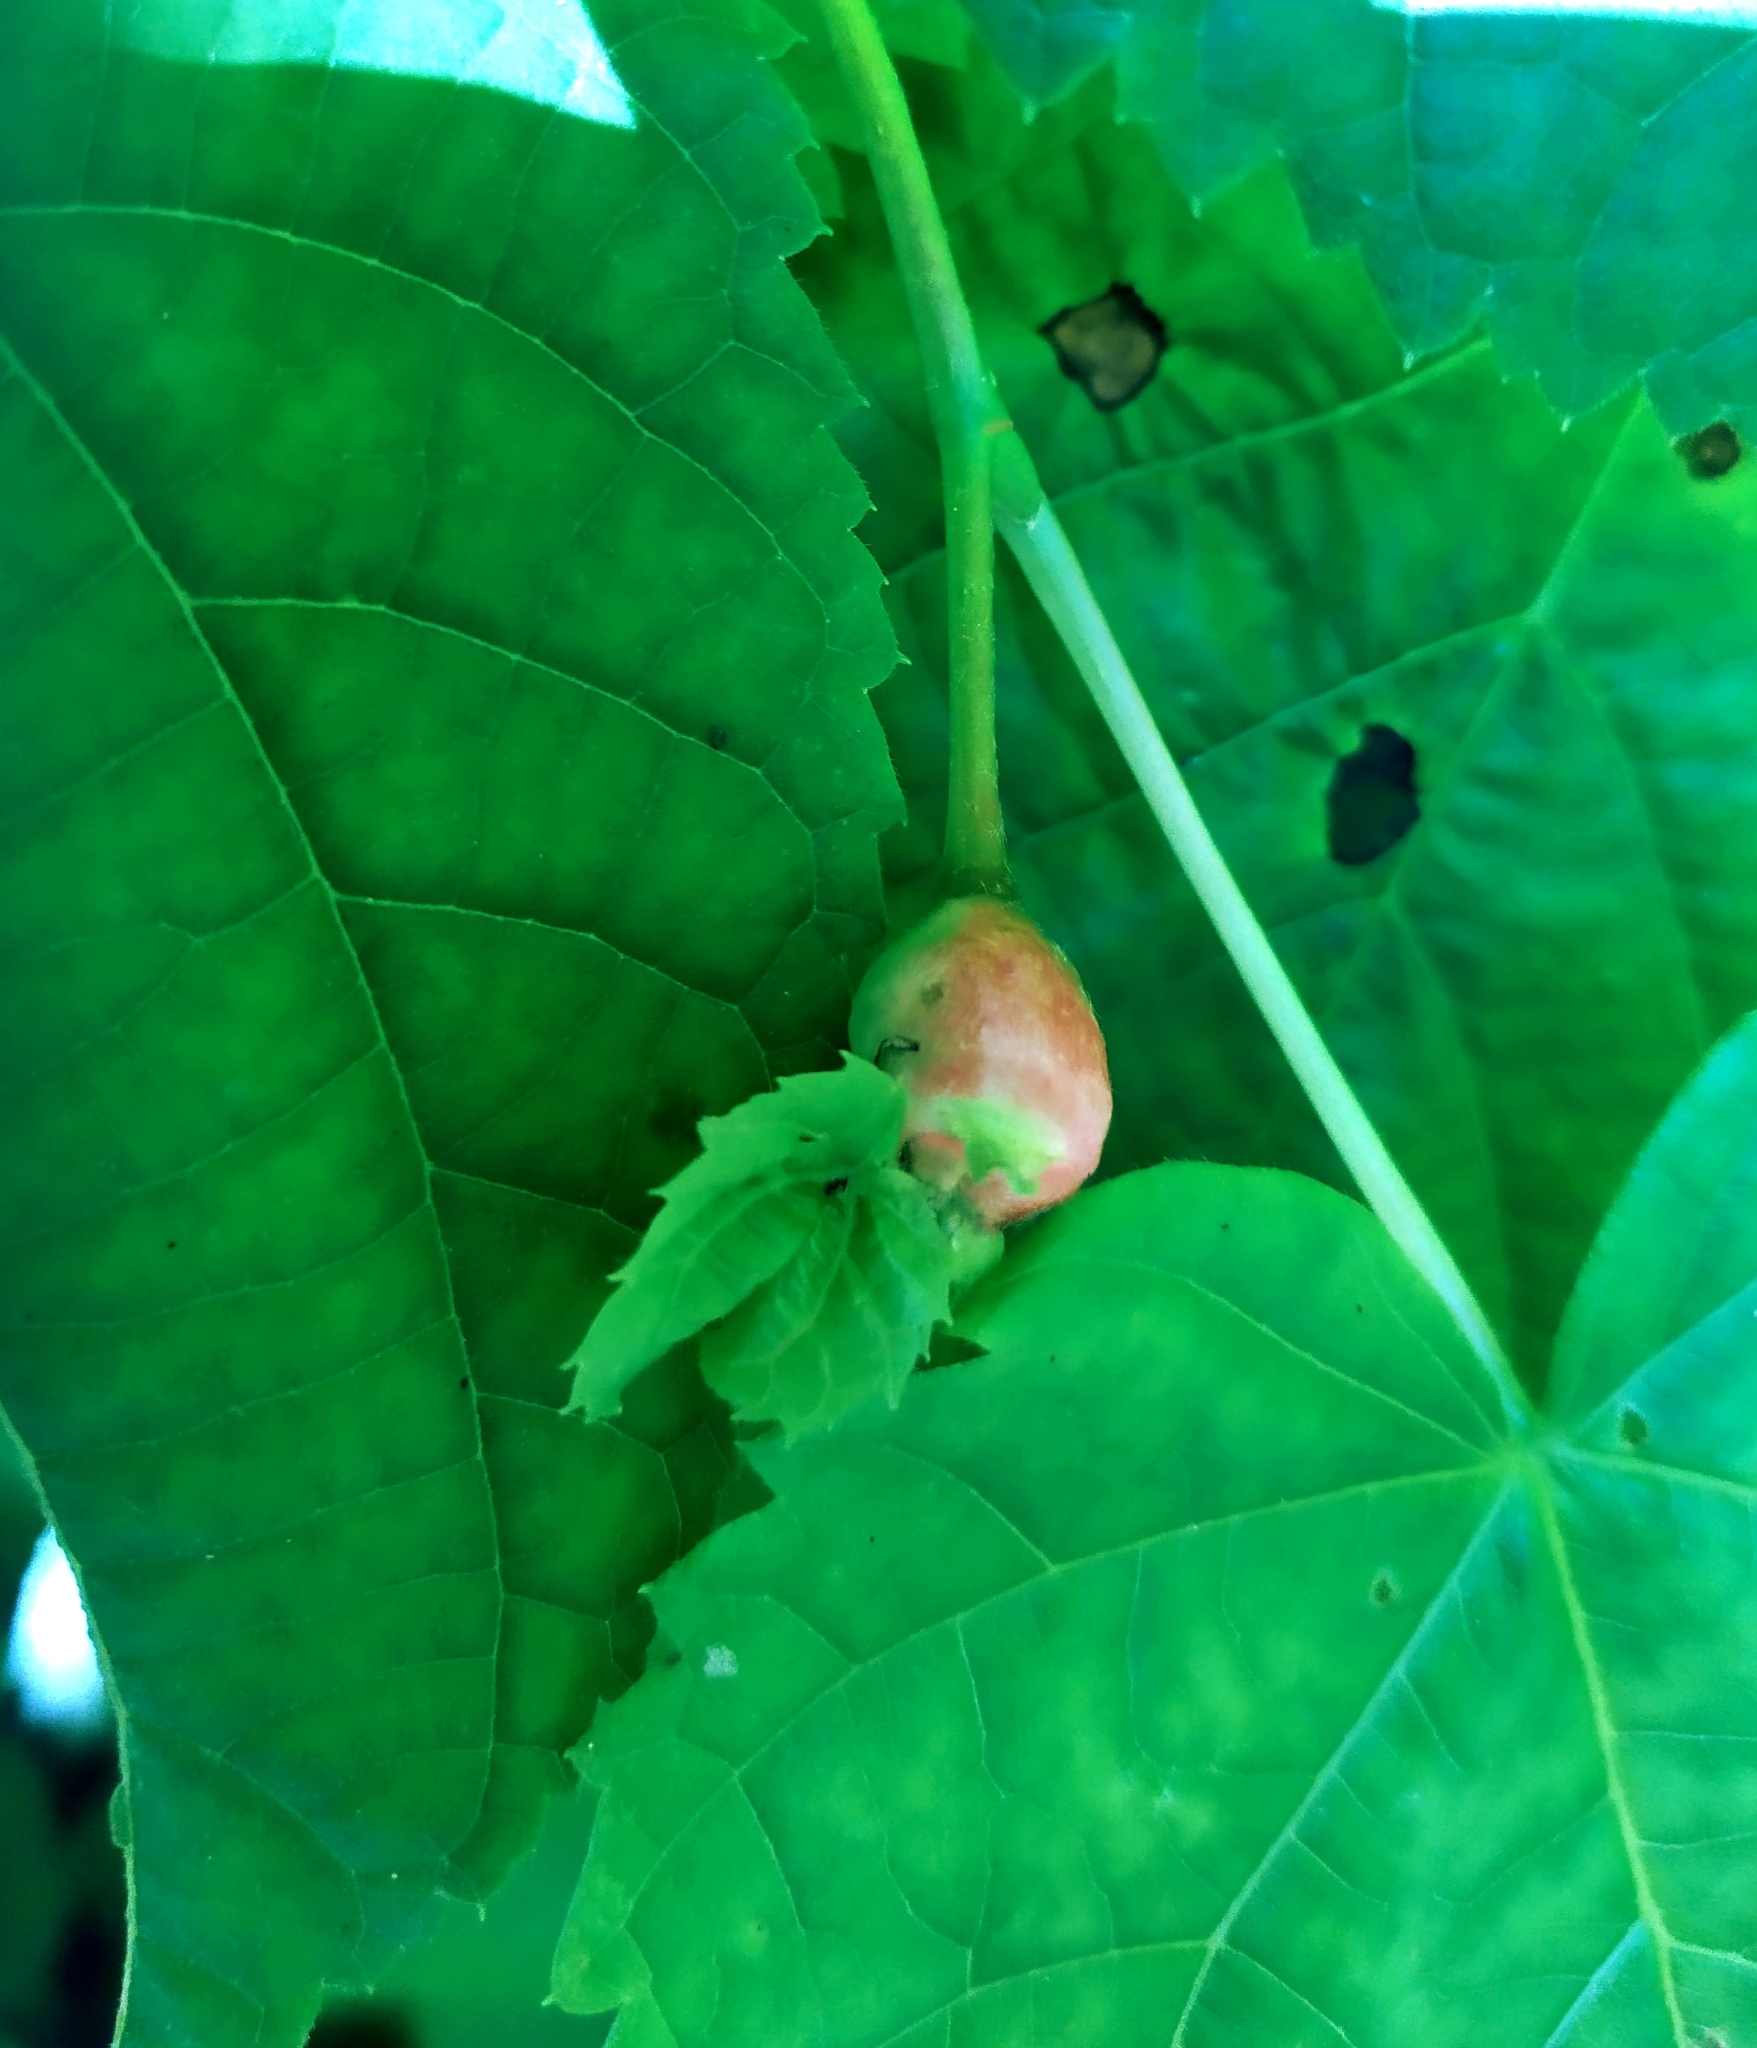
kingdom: Animalia
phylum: Arthropoda
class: Insecta
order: Diptera
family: Cecidomyiidae
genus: Contarinia
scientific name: Contarinia tiliarum
